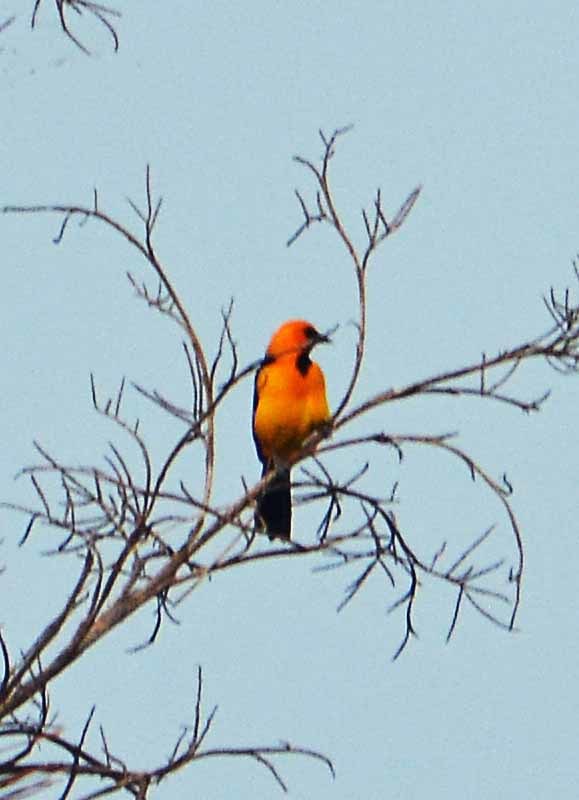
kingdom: Animalia
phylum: Chordata
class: Aves
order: Passeriformes
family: Icteridae
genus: Icterus
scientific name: Icterus gularis
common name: Altamira oriole
